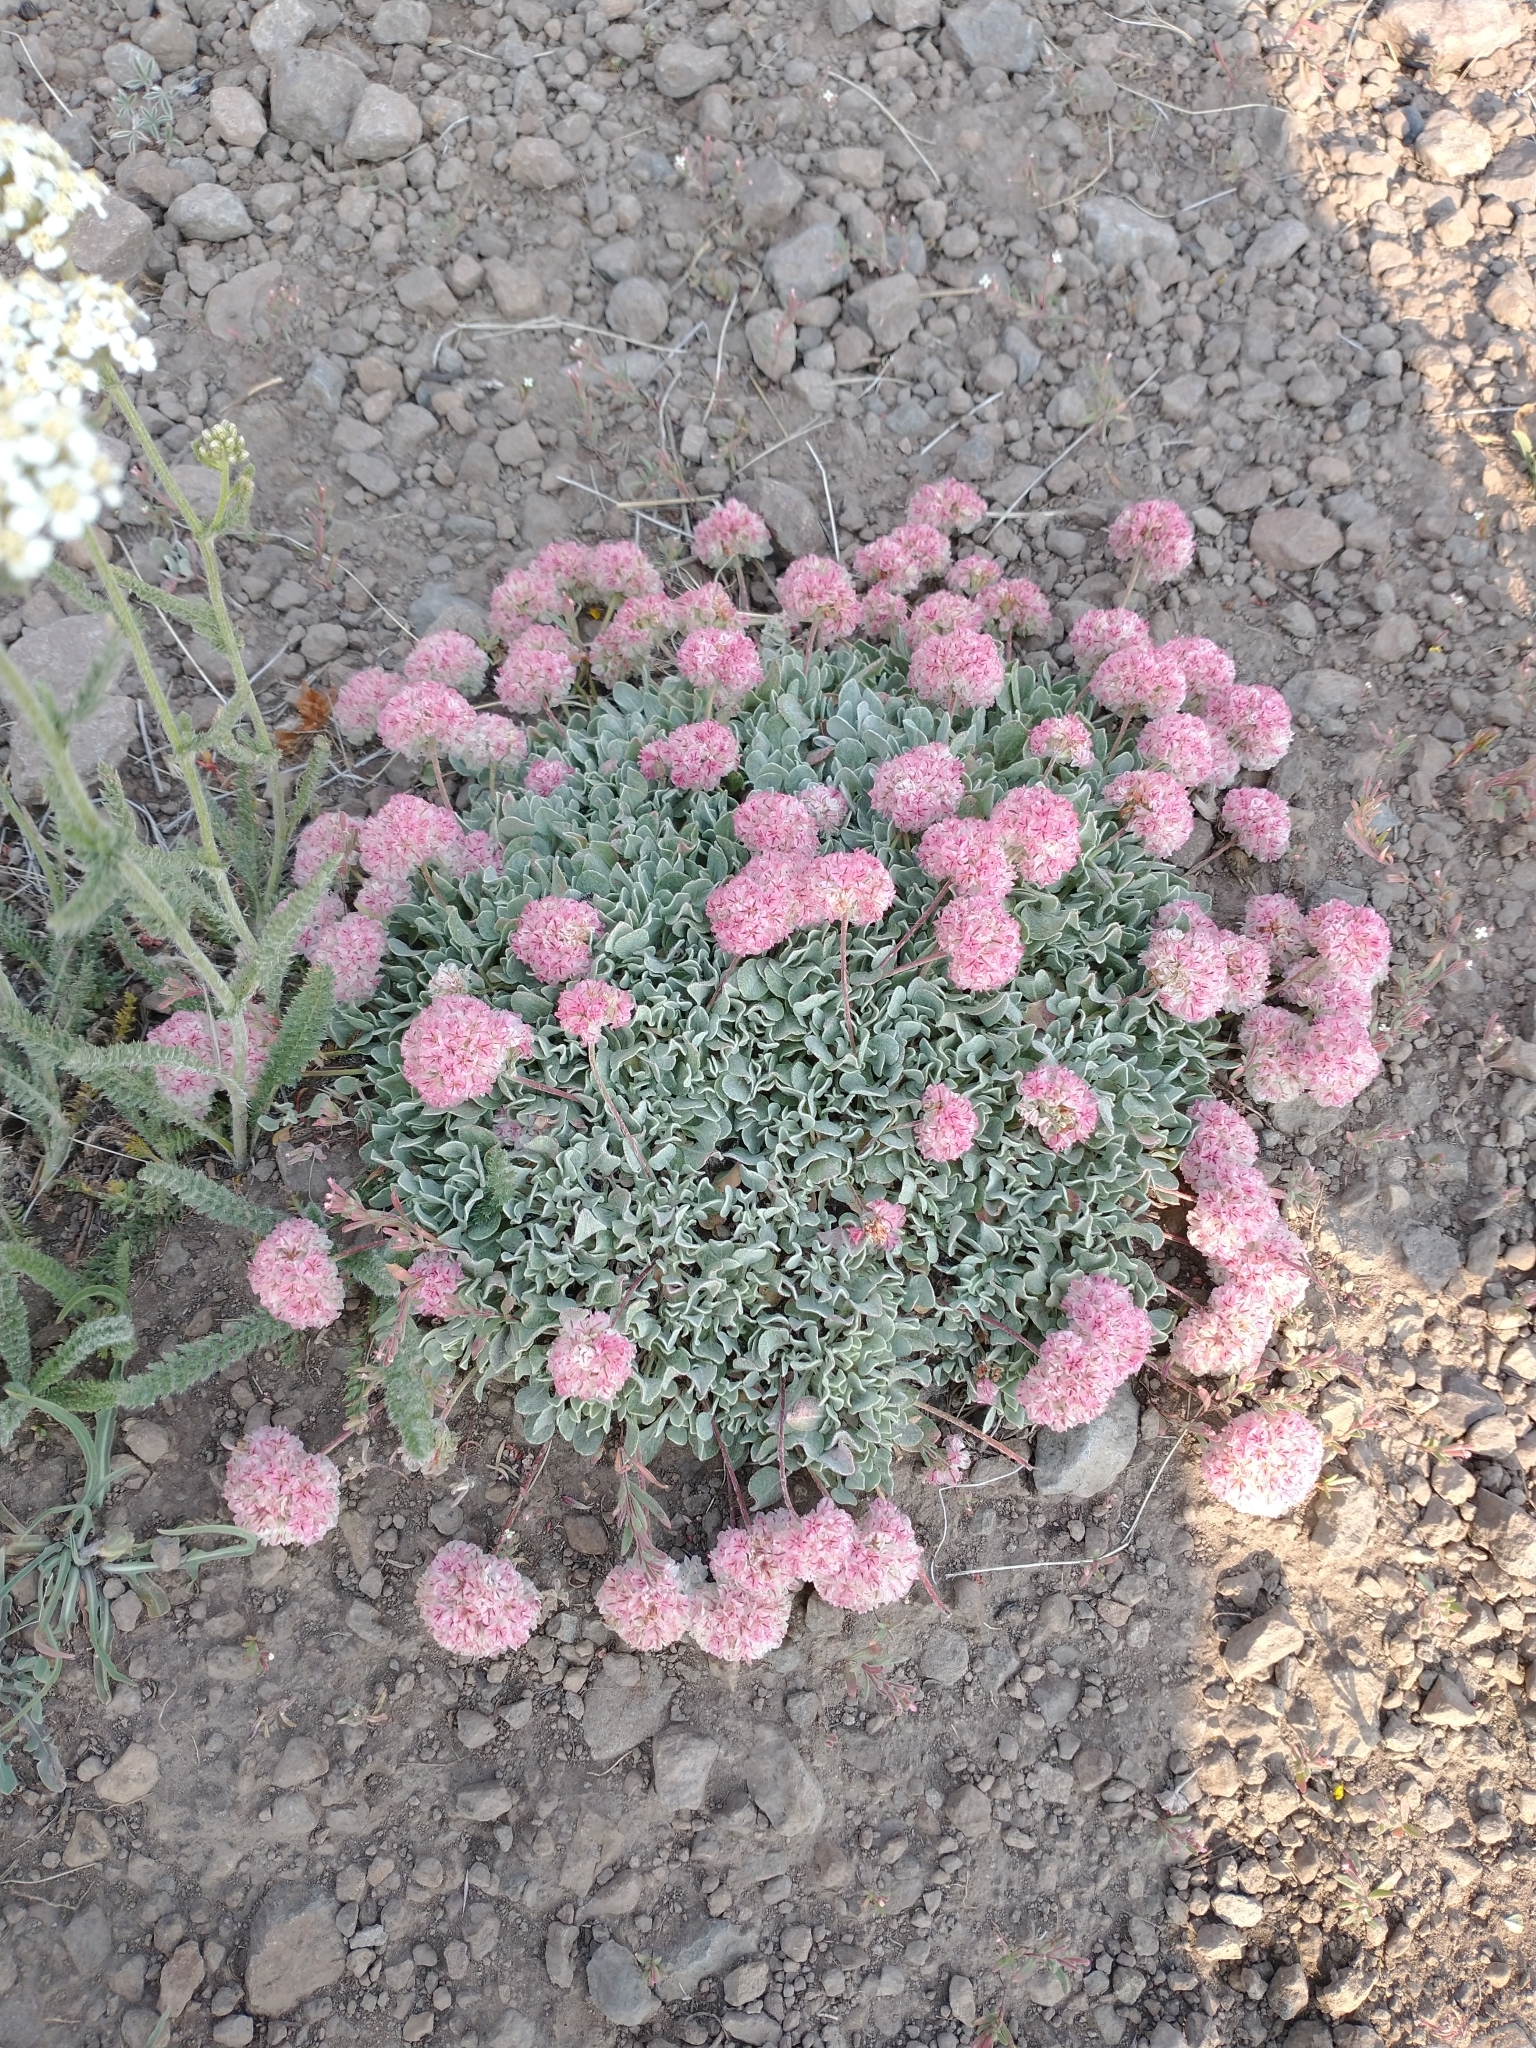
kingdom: Plantae
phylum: Tracheophyta
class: Magnoliopsida
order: Caryophyllales
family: Polygonaceae
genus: Eriogonum
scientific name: Eriogonum ovalifolium
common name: Cushion buckwheat
